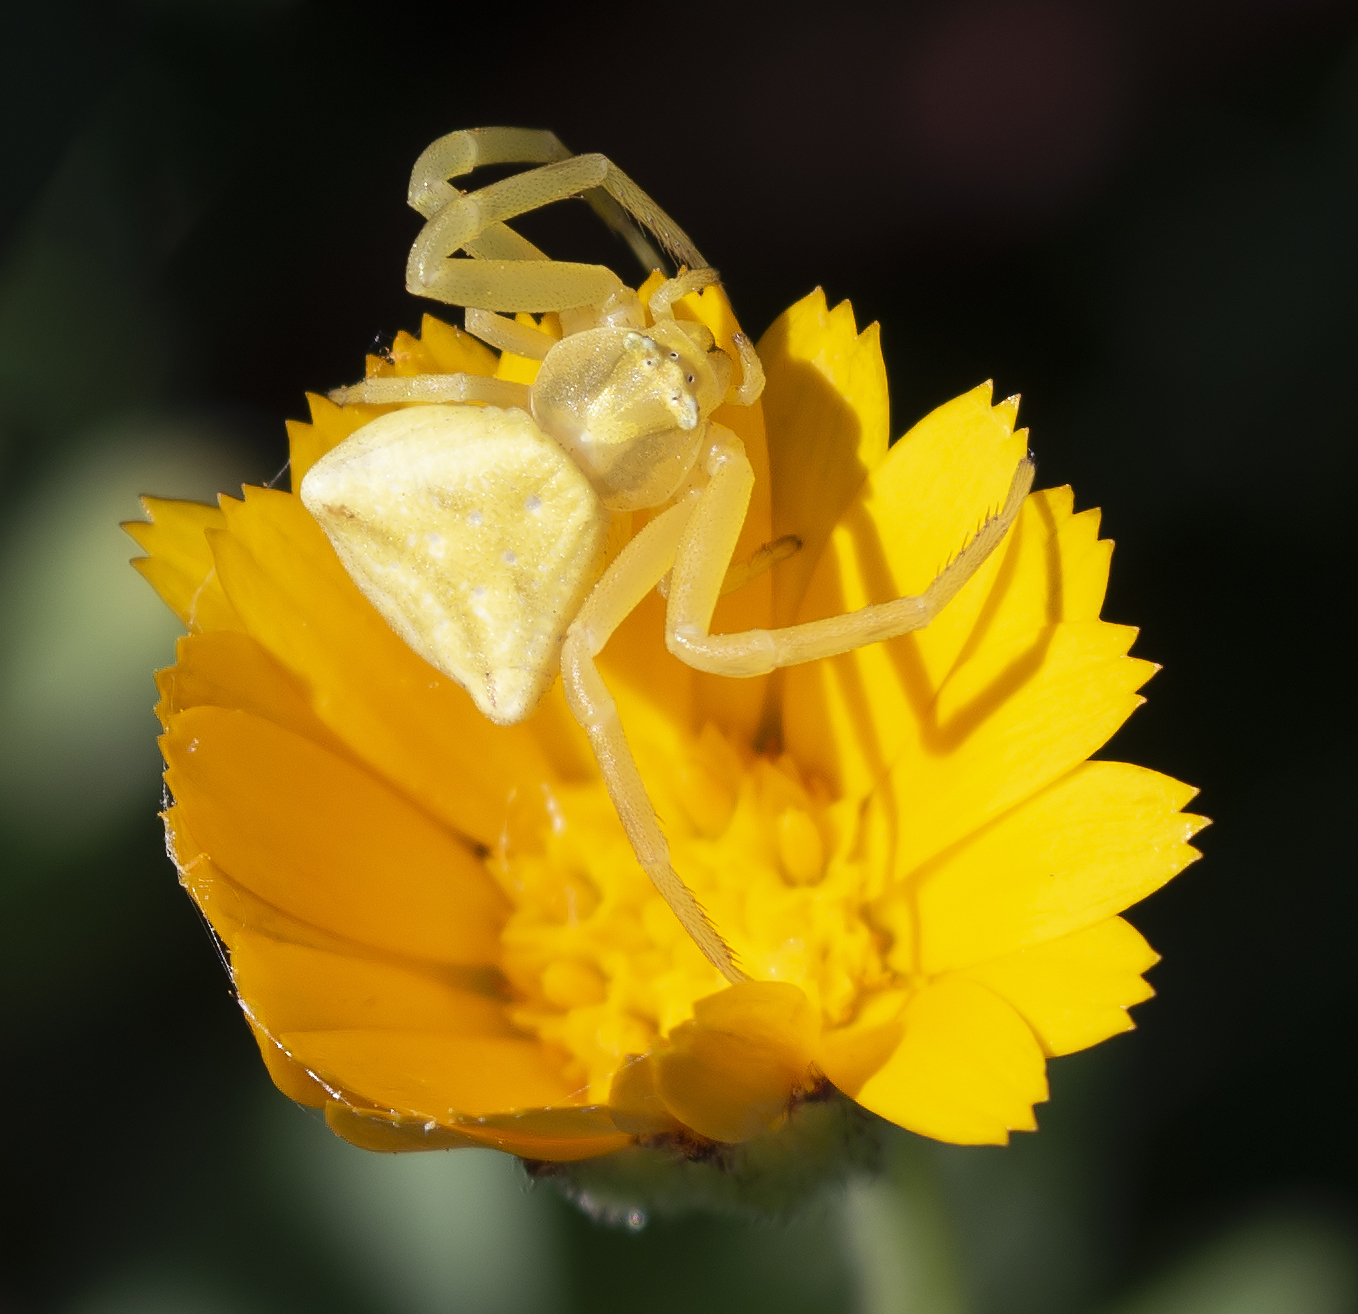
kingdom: Animalia
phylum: Arthropoda
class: Arachnida
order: Araneae
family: Thomisidae
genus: Thomisus
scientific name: Thomisus onustus
